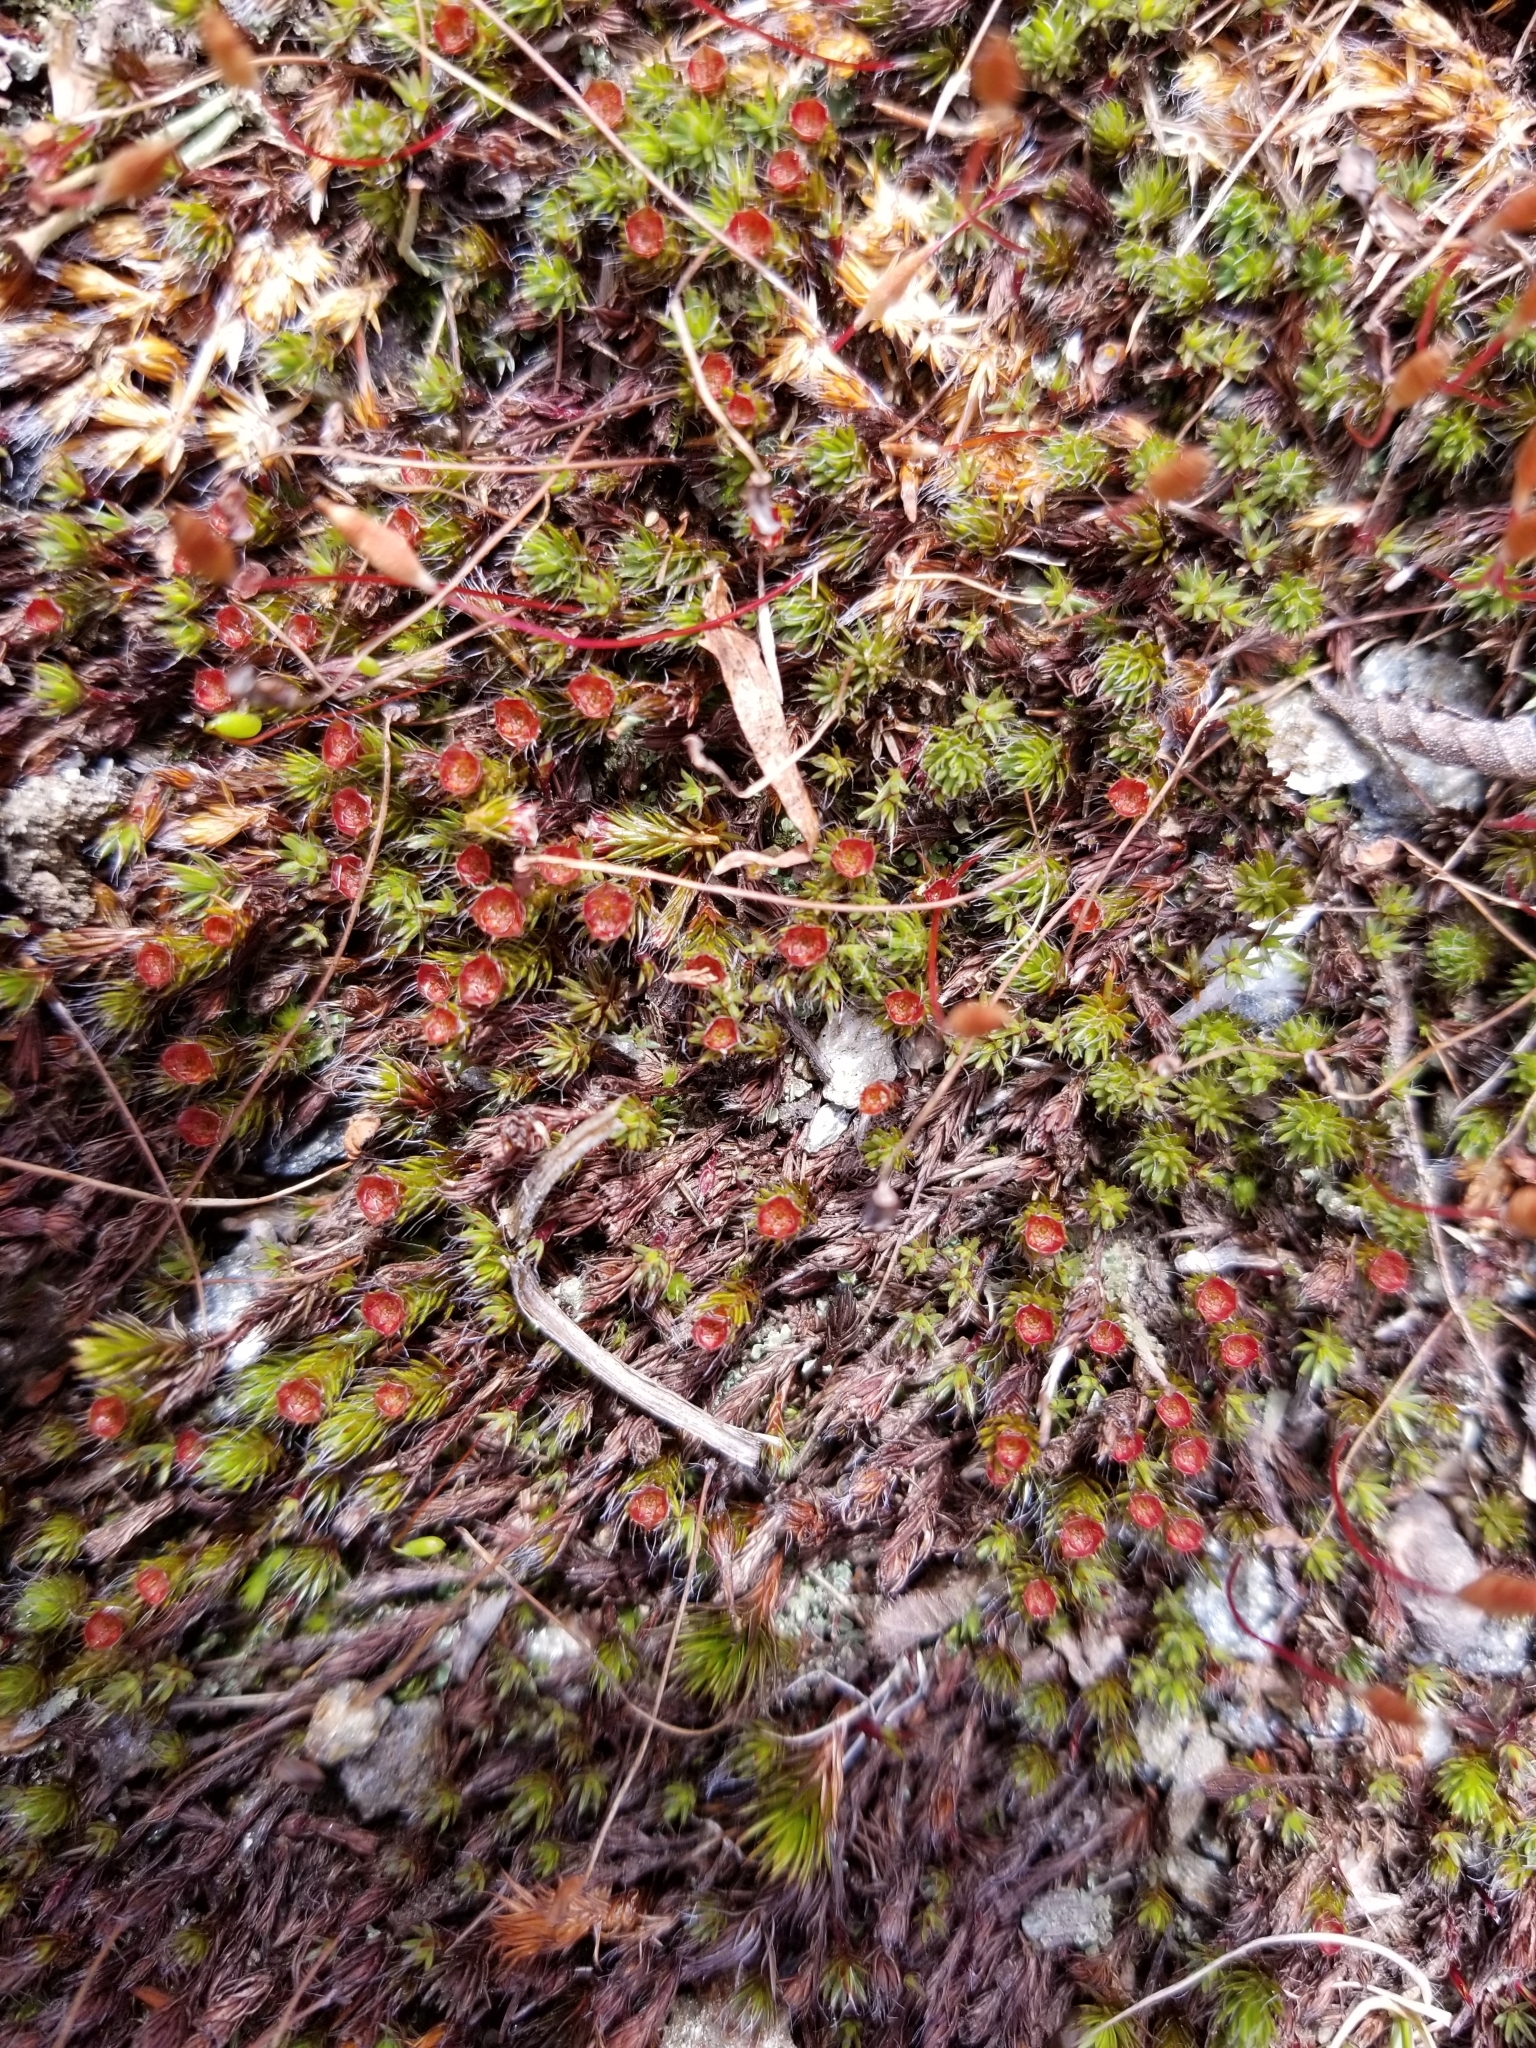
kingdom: Plantae
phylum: Bryophyta
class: Polytrichopsida
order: Polytrichales
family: Polytrichaceae
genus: Polytrichum
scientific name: Polytrichum piliferum
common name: Bristly haircap
